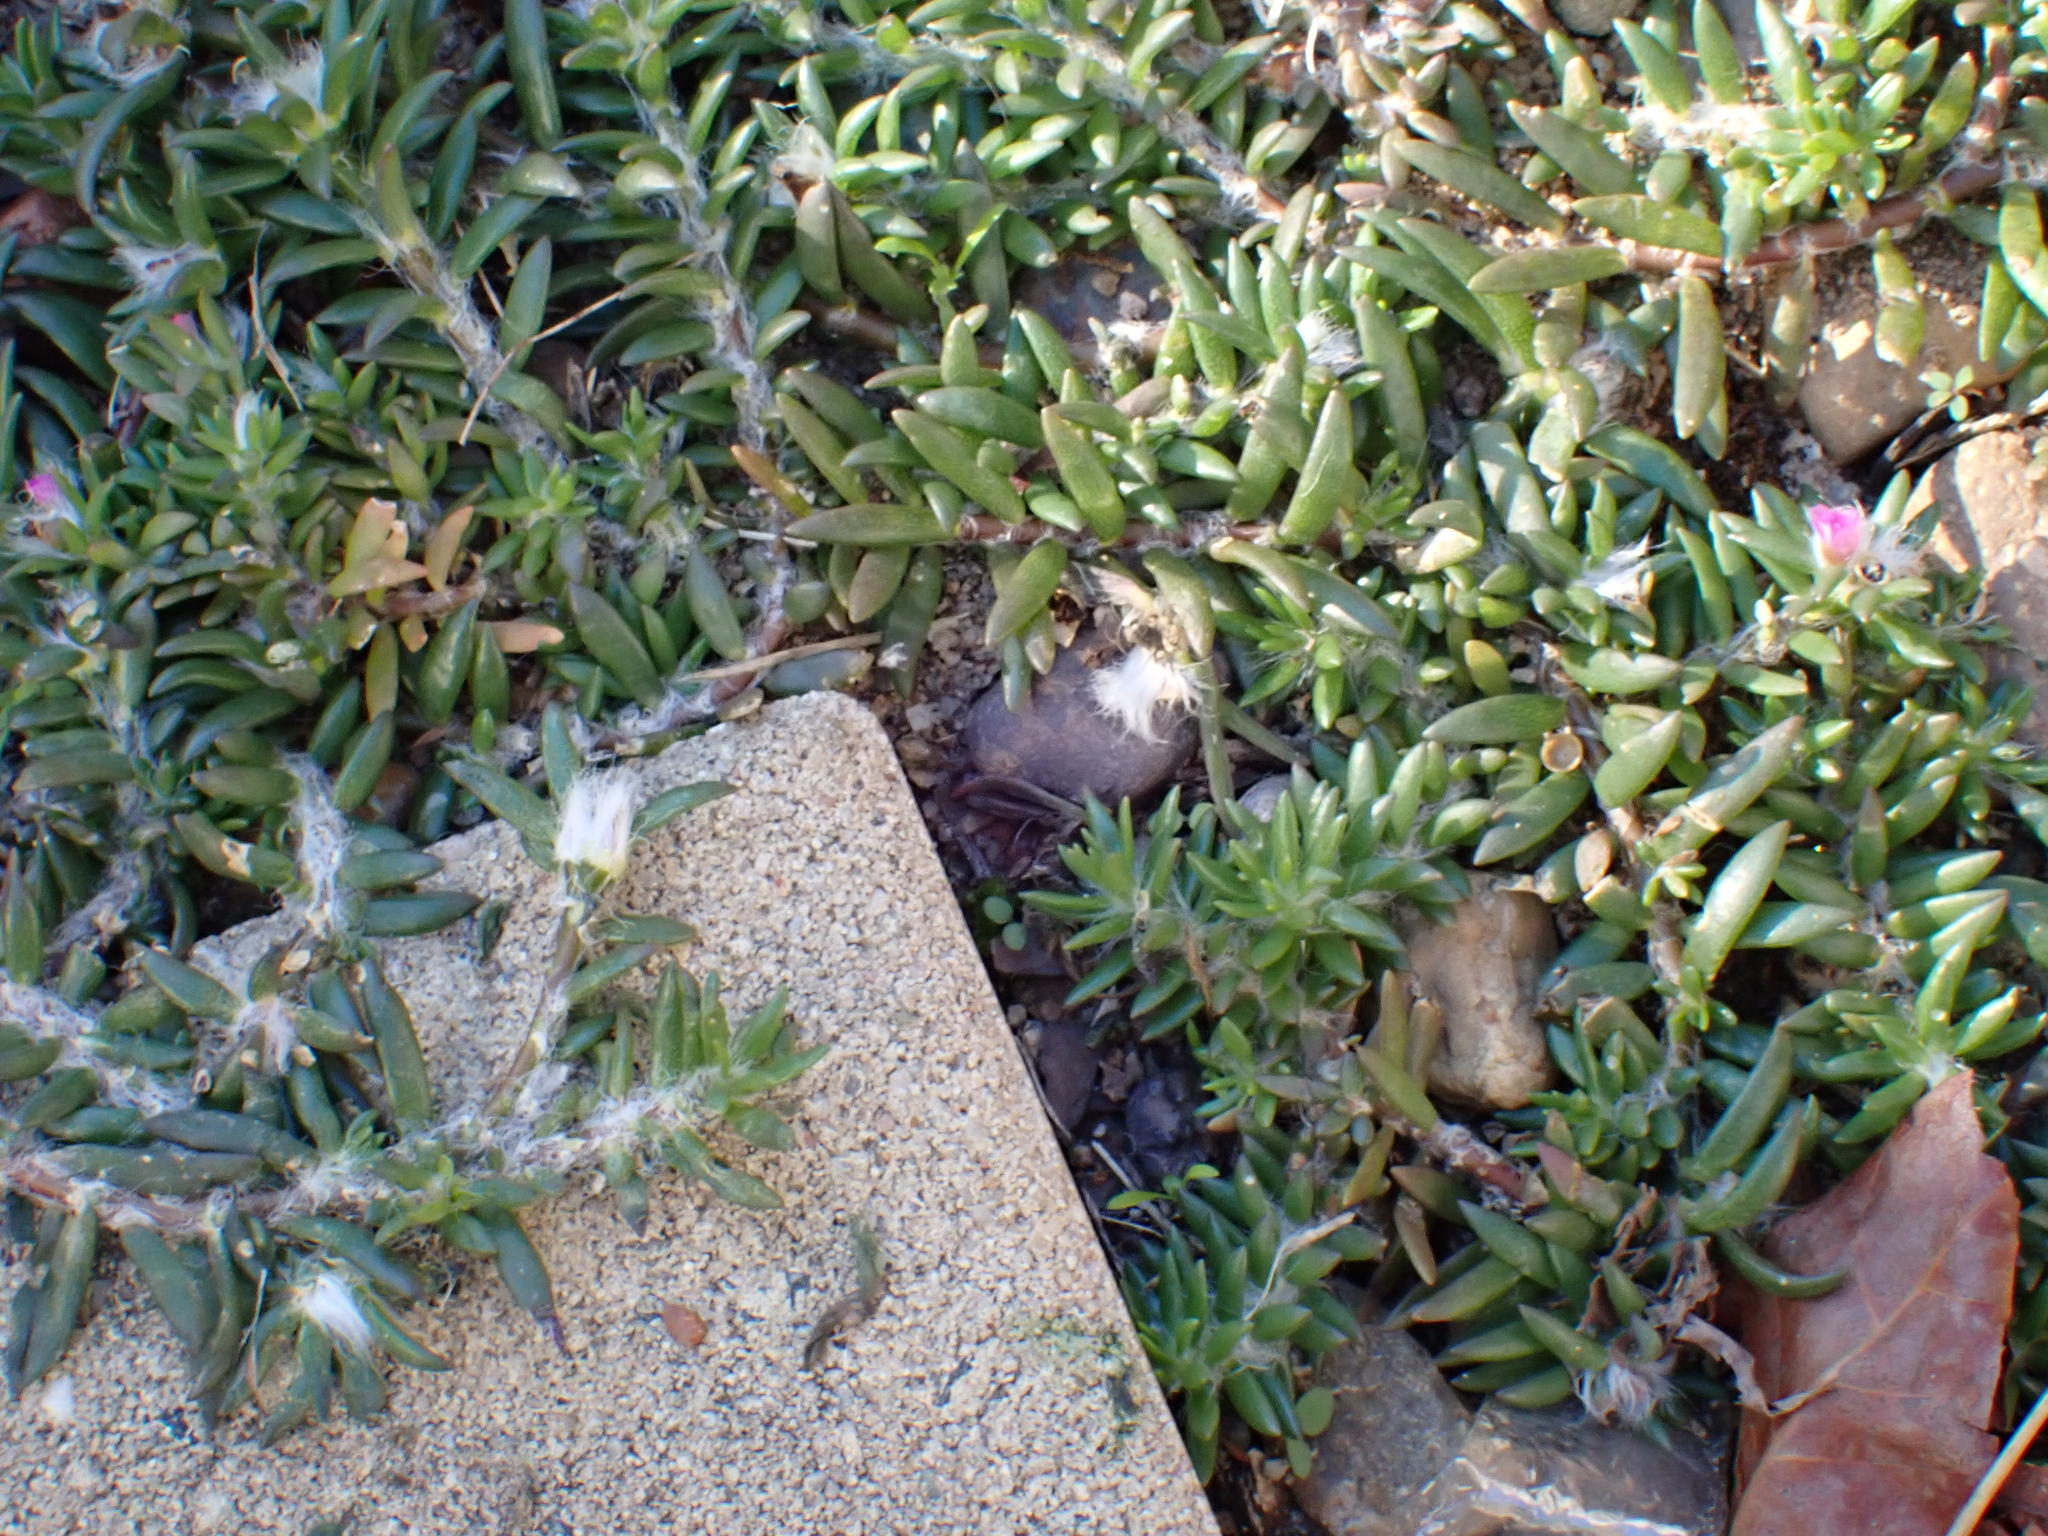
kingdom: Plantae
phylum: Tracheophyta
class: Magnoliopsida
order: Caryophyllales
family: Portulacaceae
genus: Portulaca
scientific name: Portulaca pilosa
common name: Kiss me quick
